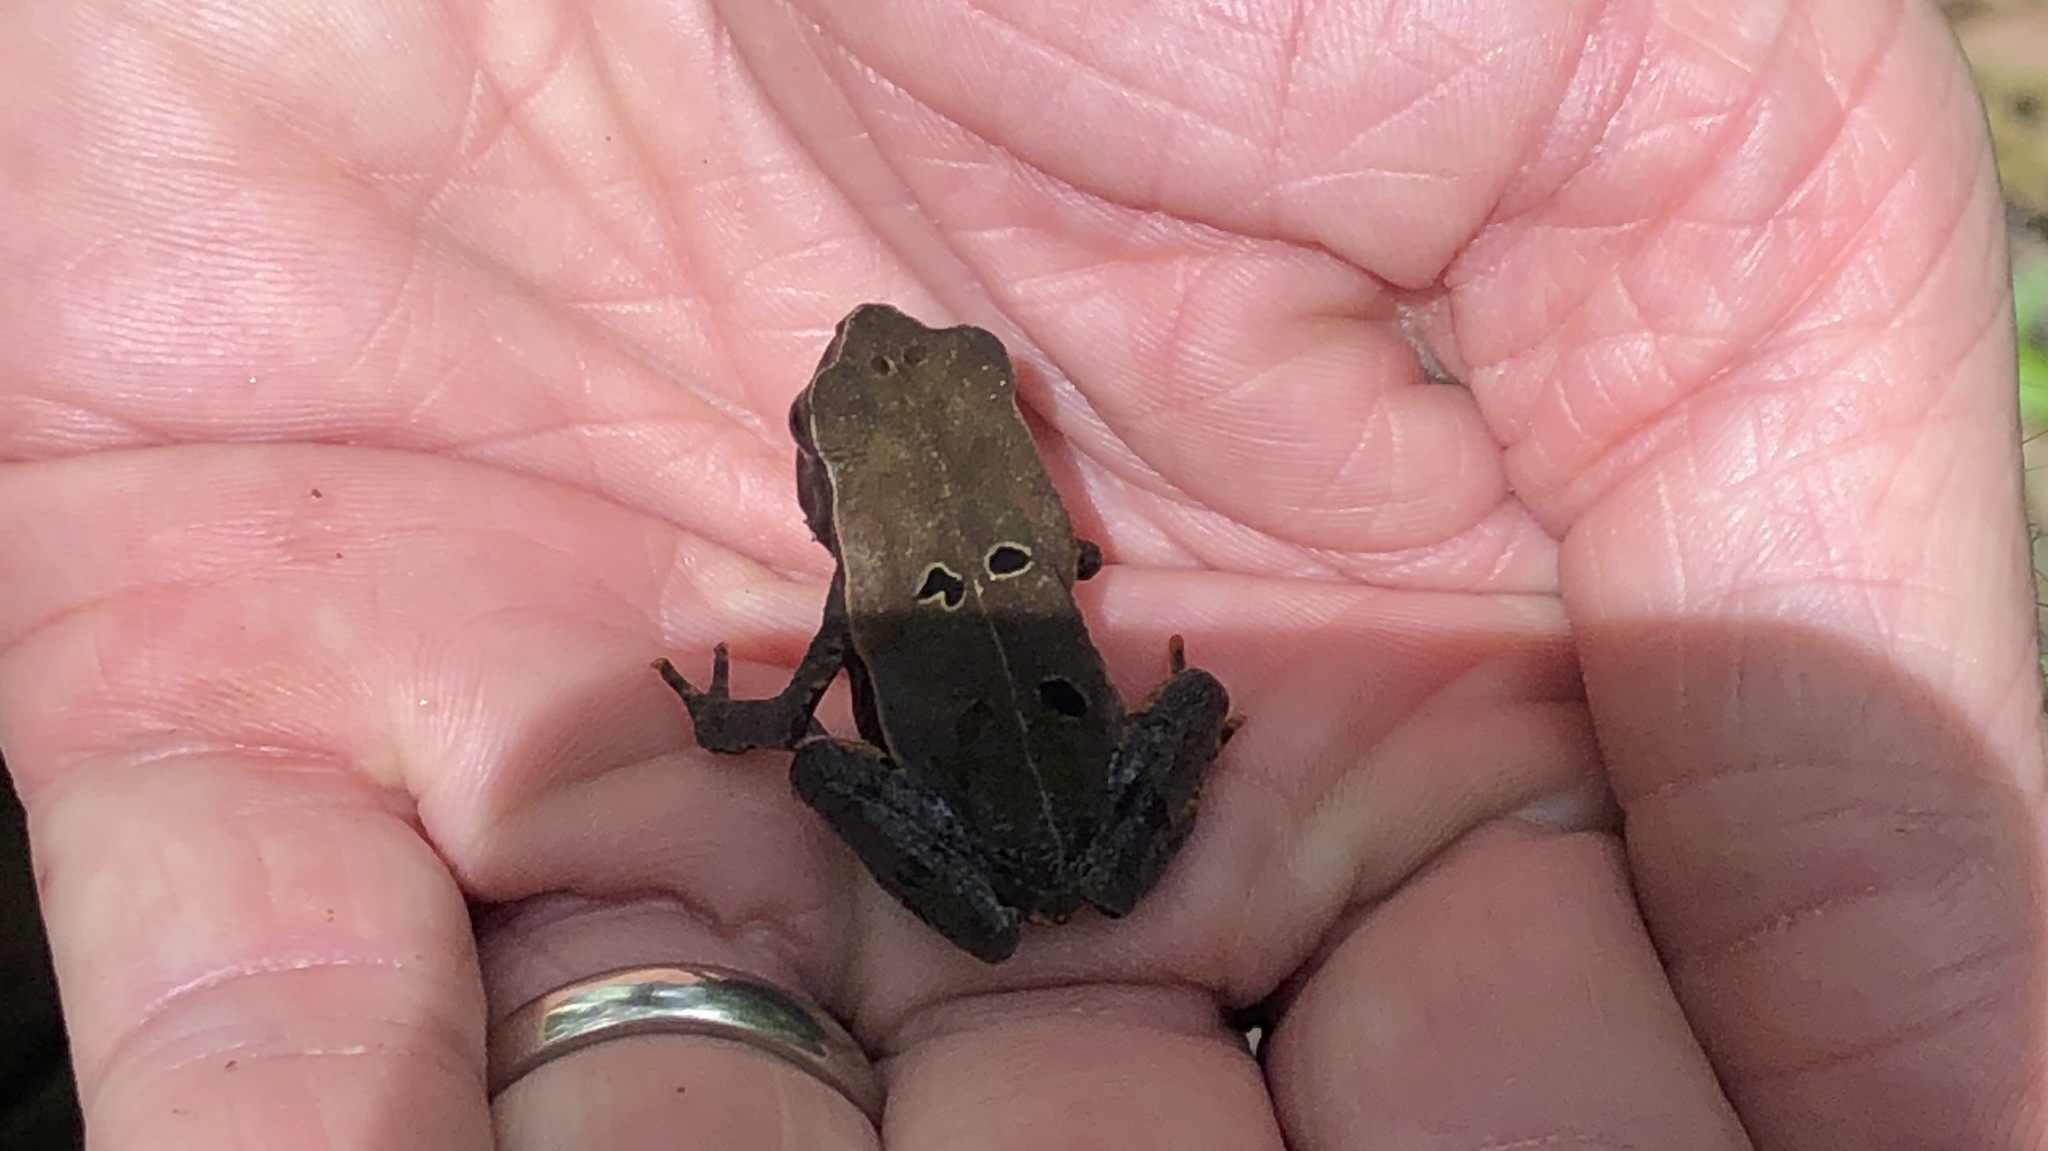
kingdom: Animalia
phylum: Chordata
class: Amphibia
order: Anura
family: Bufonidae
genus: Rhaebo
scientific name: Rhaebo haematiticus
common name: Truando toad
